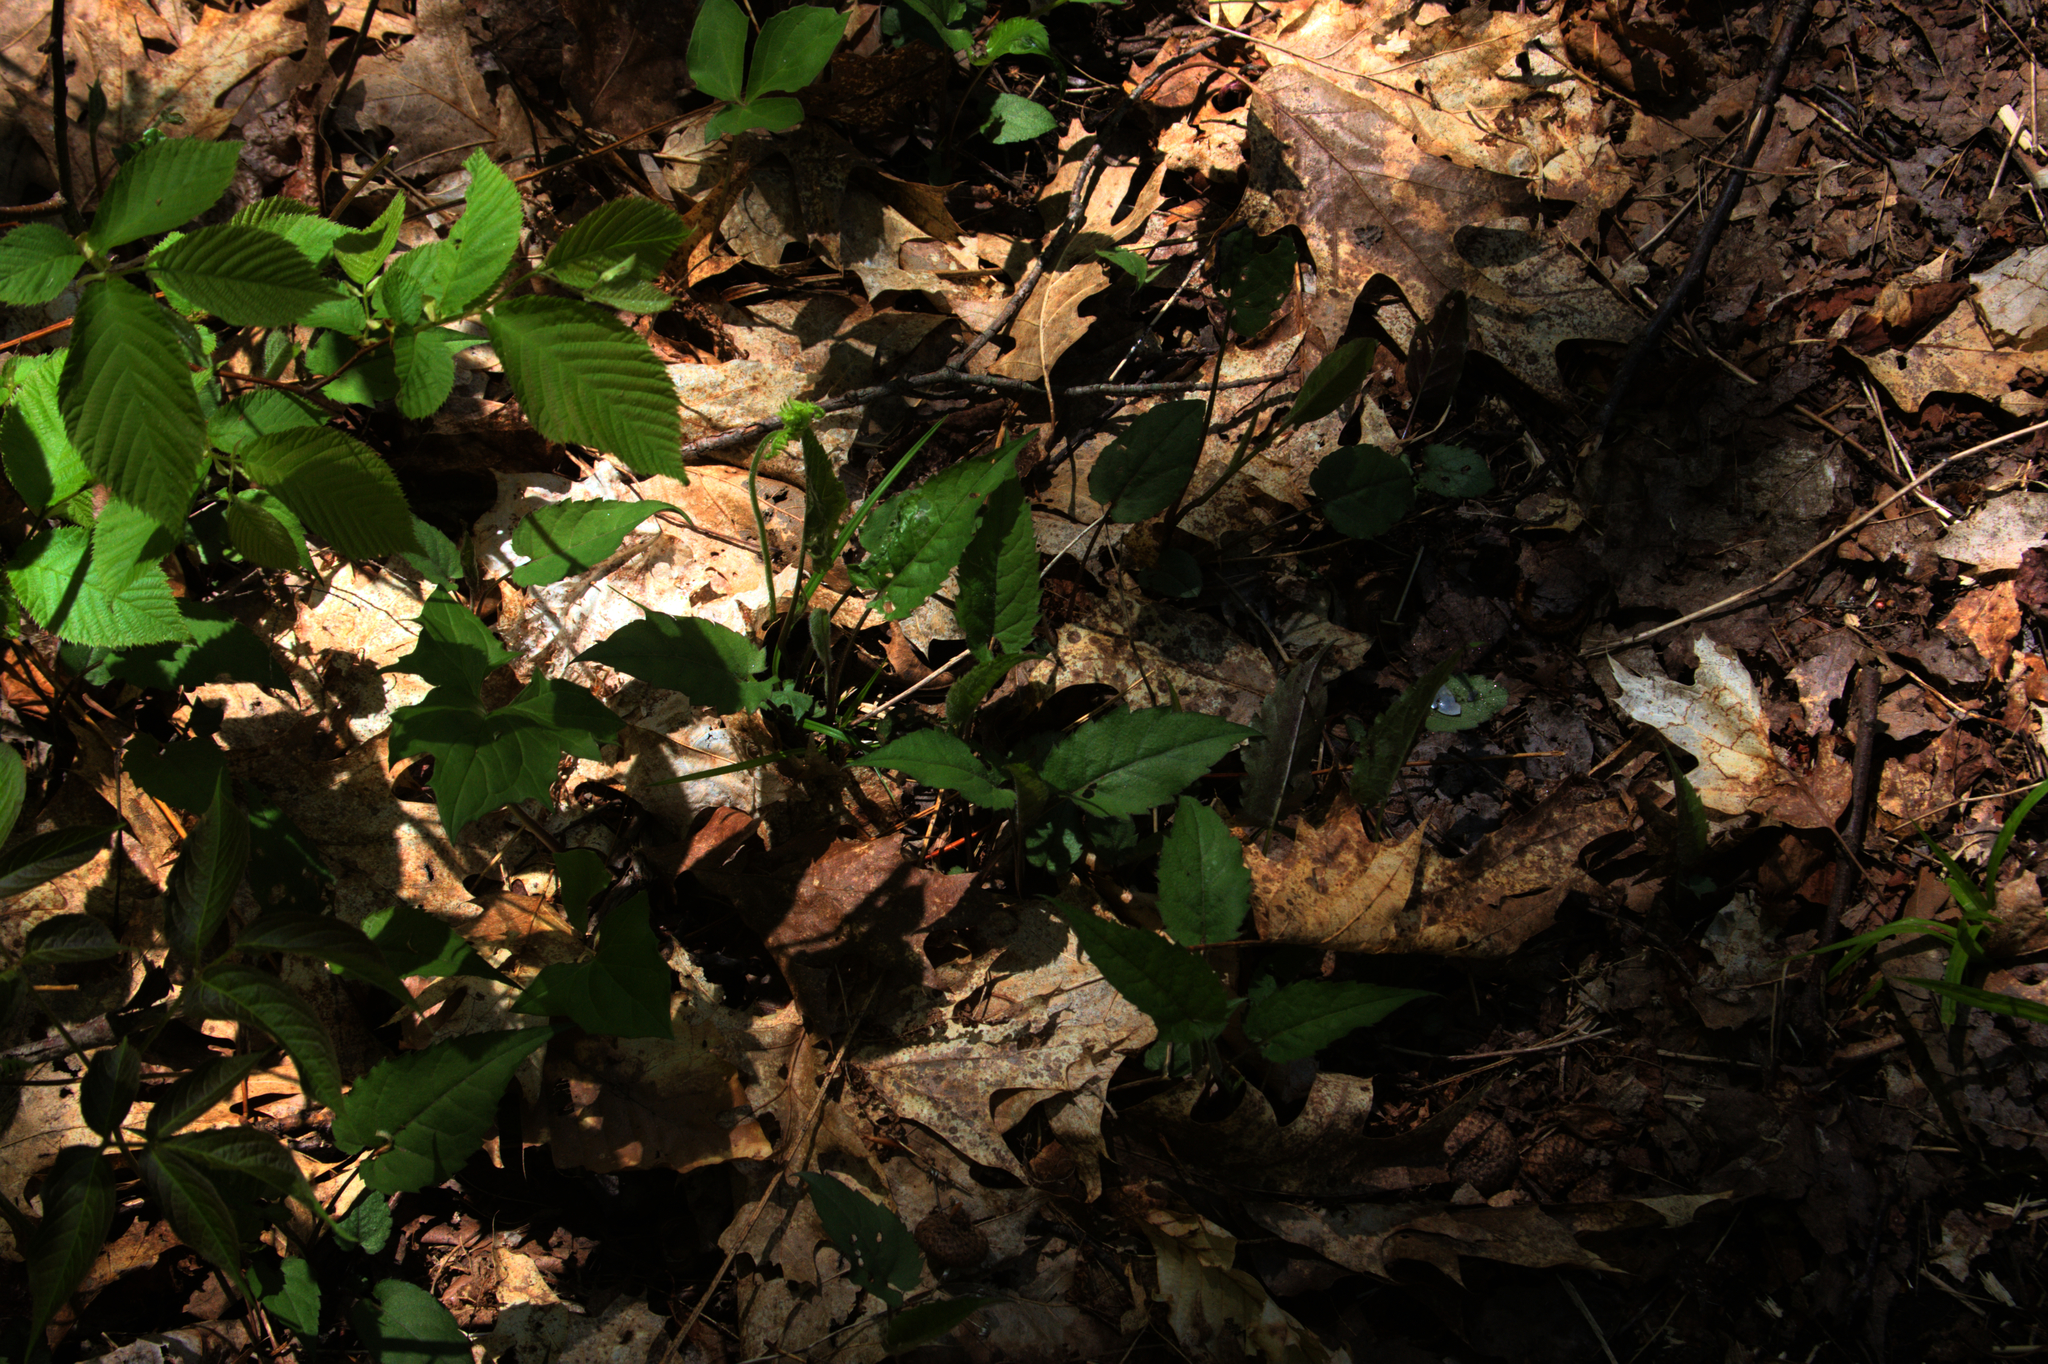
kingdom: Plantae
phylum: Tracheophyta
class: Magnoliopsida
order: Asterales
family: Asteraceae
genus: Eurybia
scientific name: Eurybia divaricata
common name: White wood aster
